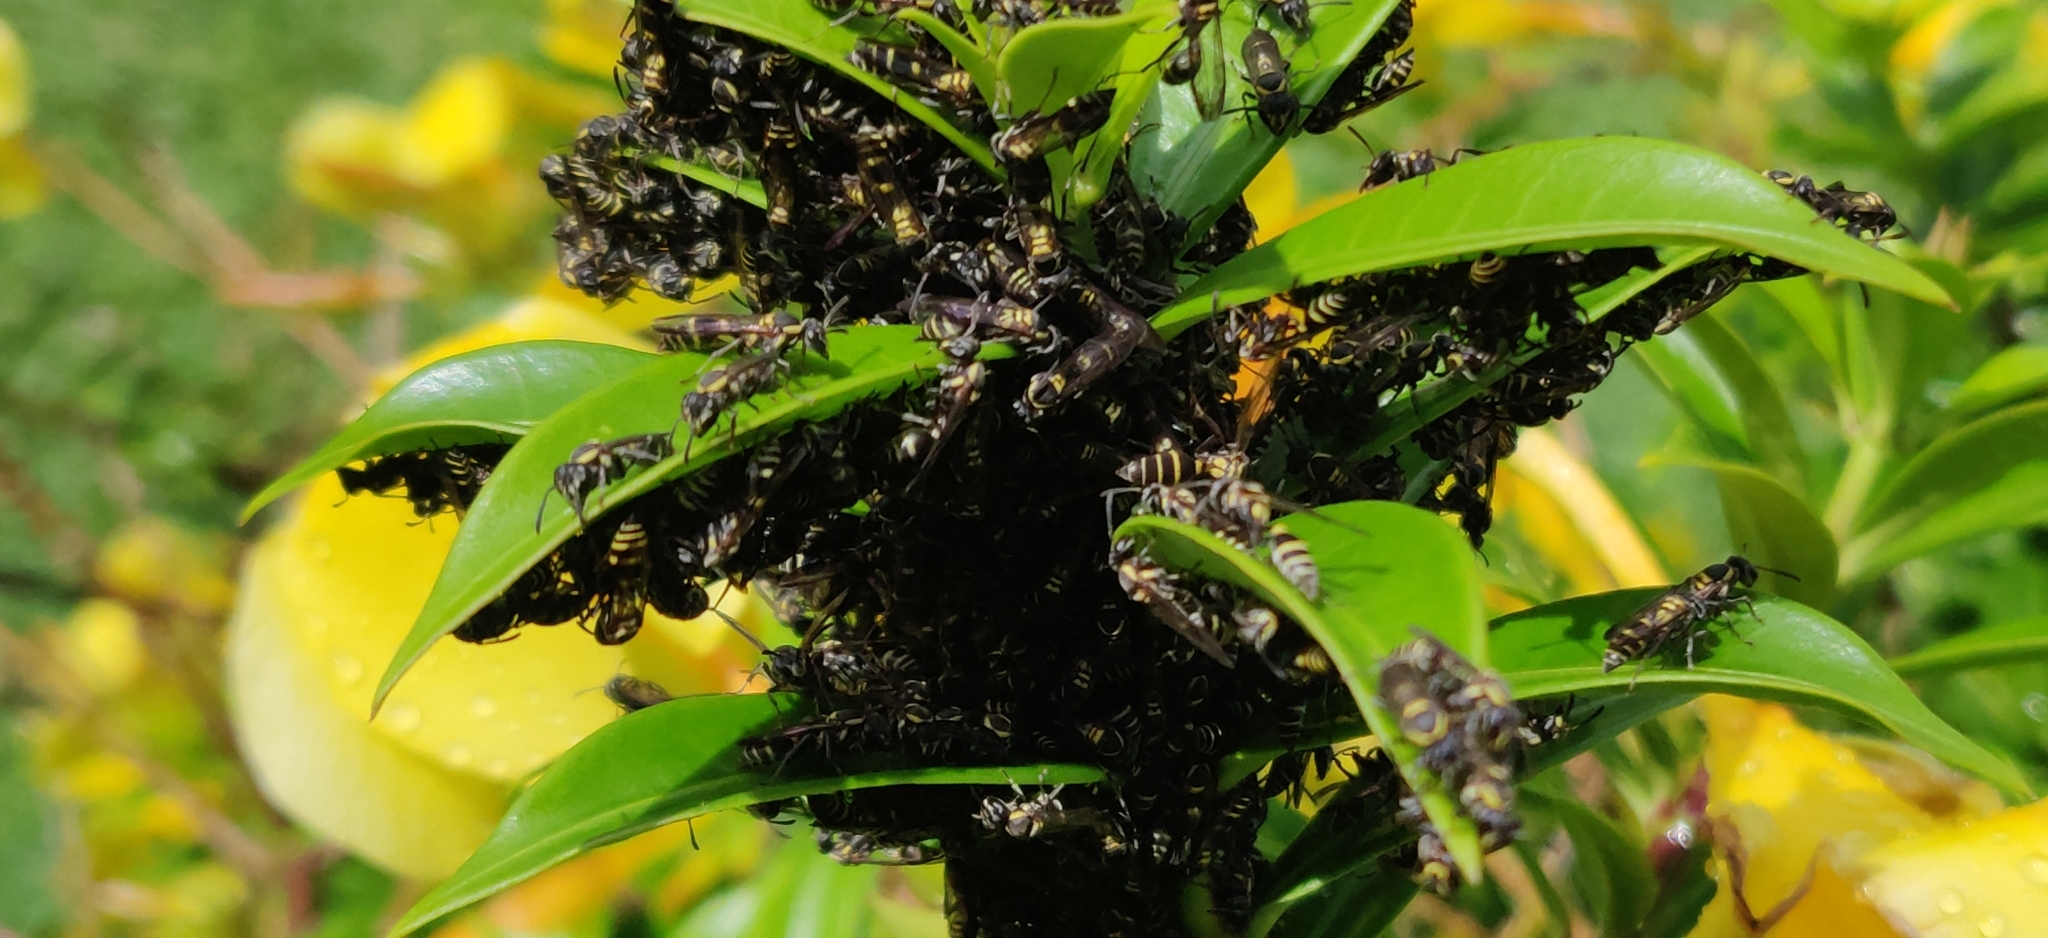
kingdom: Animalia
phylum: Arthropoda
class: Insecta
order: Hymenoptera
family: Eumenidae
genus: Polybia
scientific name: Polybia occidentalis
